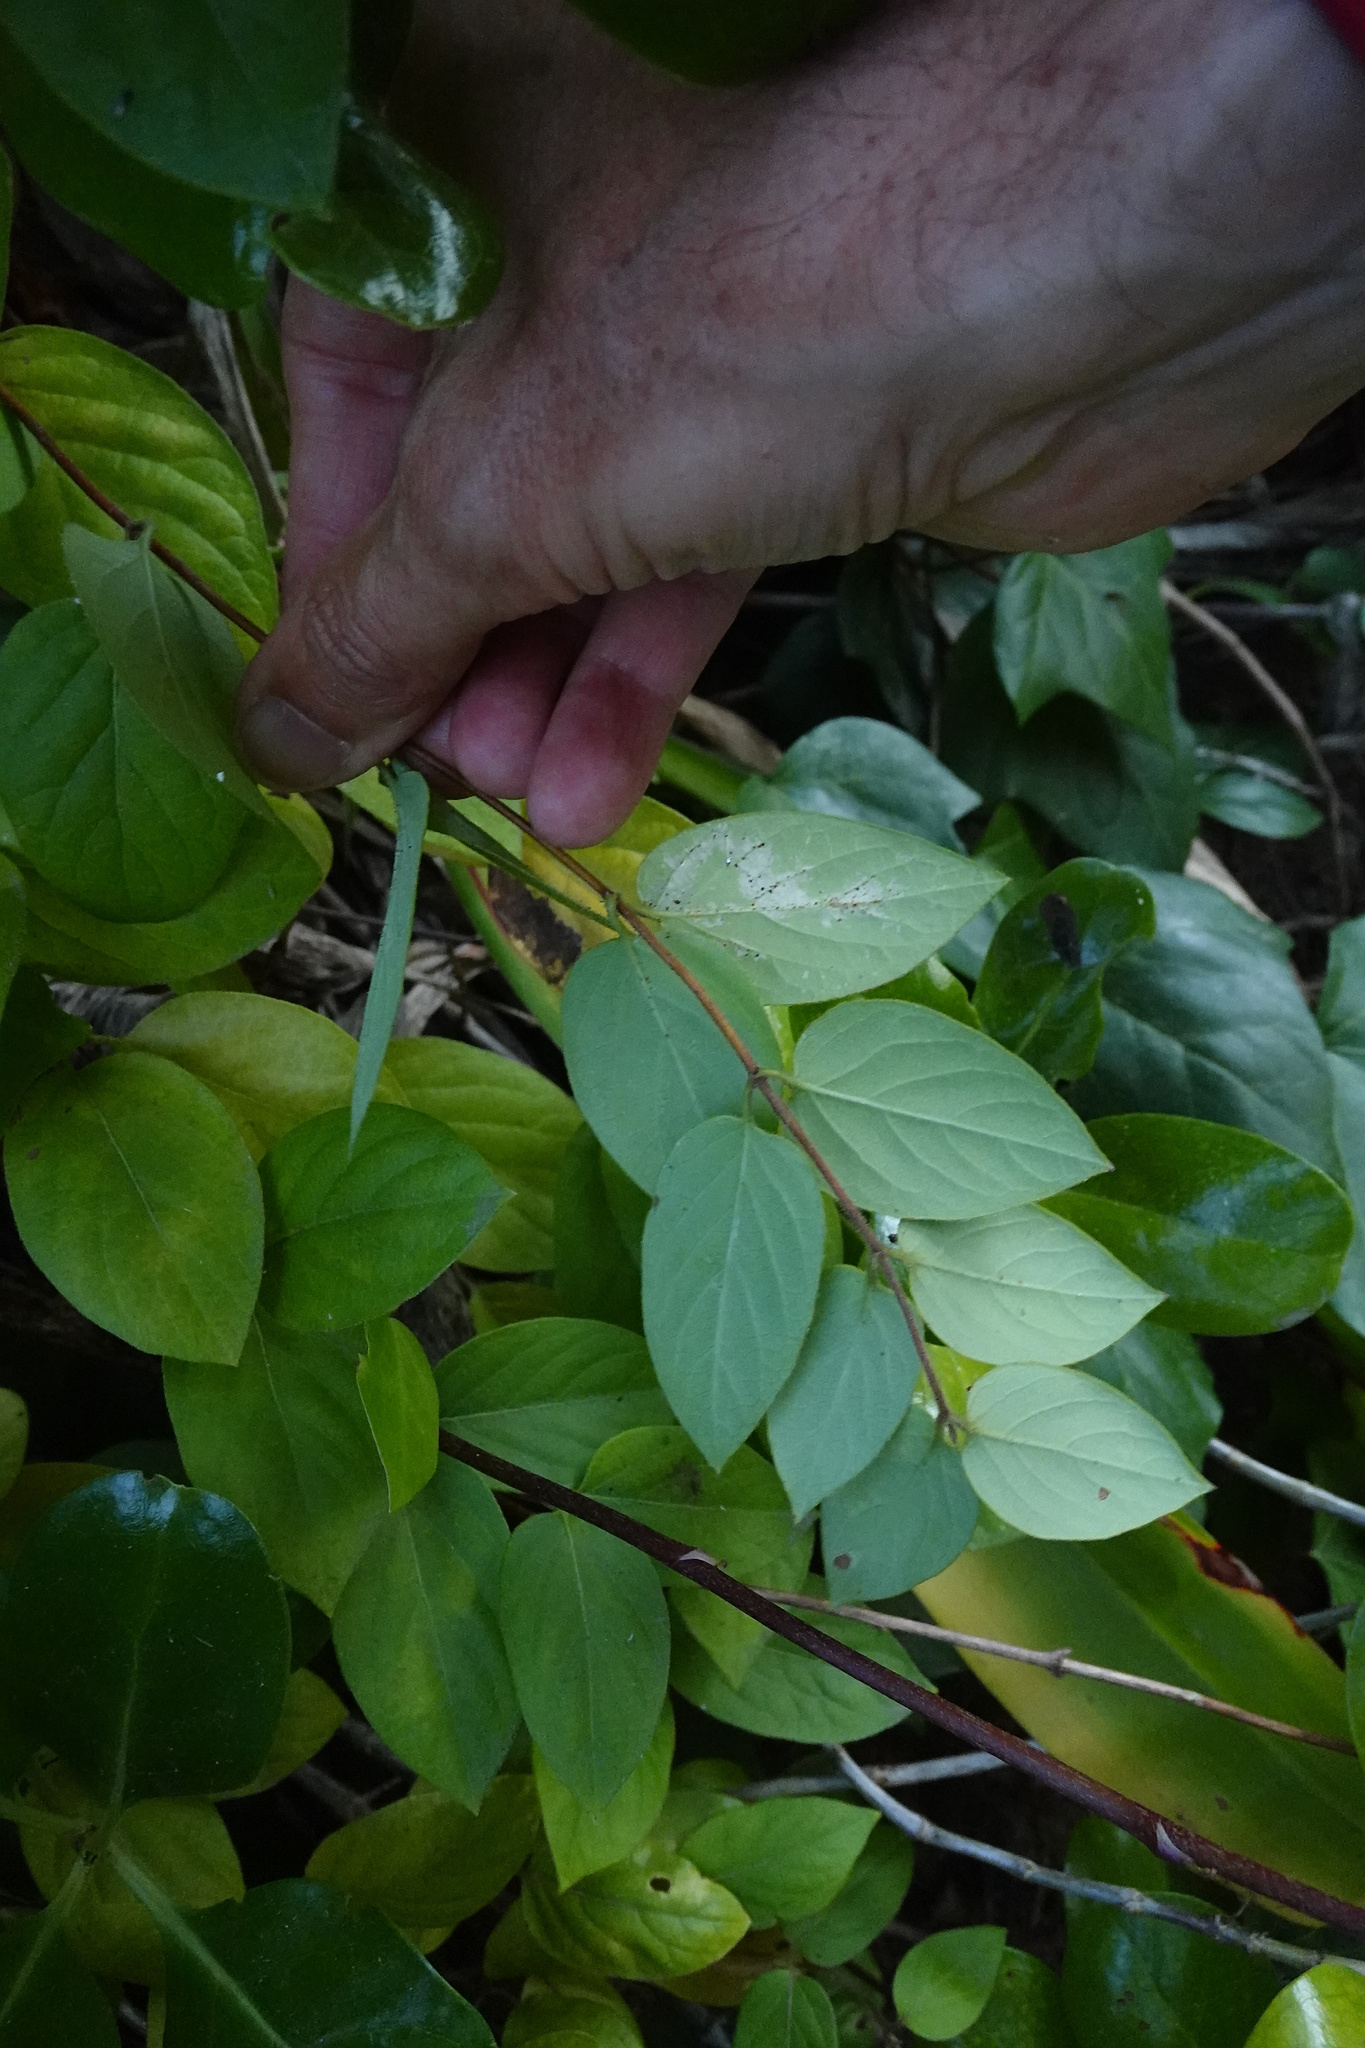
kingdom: Plantae
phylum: Tracheophyta
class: Magnoliopsida
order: Dipsacales
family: Caprifoliaceae
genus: Lonicera
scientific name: Lonicera japonica
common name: Japanese honeysuckle
